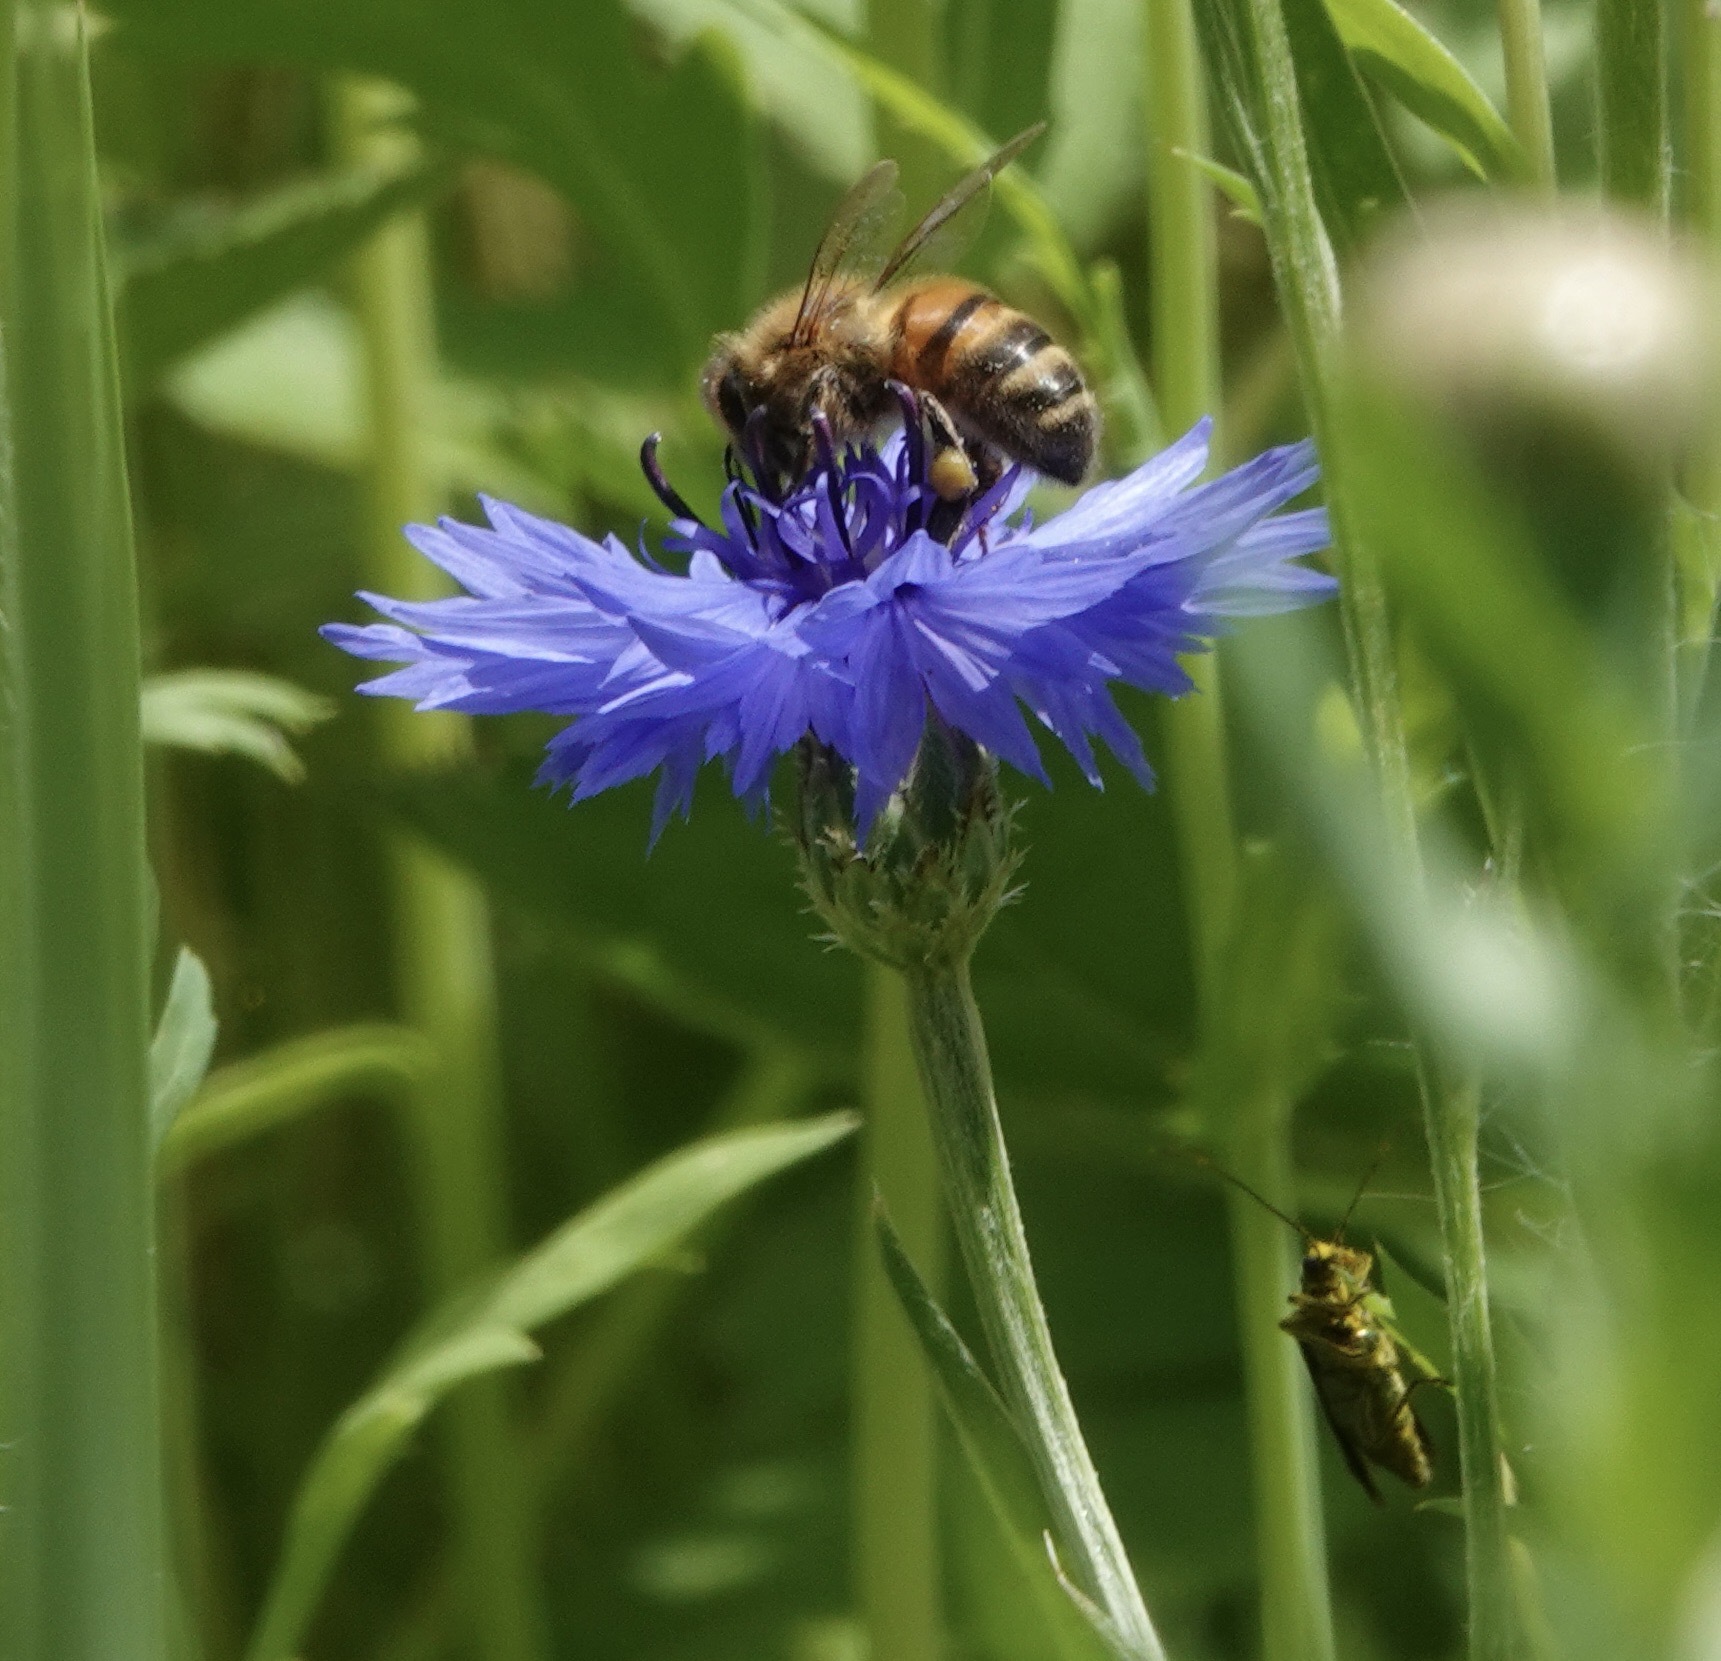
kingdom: Animalia
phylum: Arthropoda
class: Insecta
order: Hymenoptera
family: Apidae
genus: Apis
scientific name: Apis mellifera
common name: Honey bee
